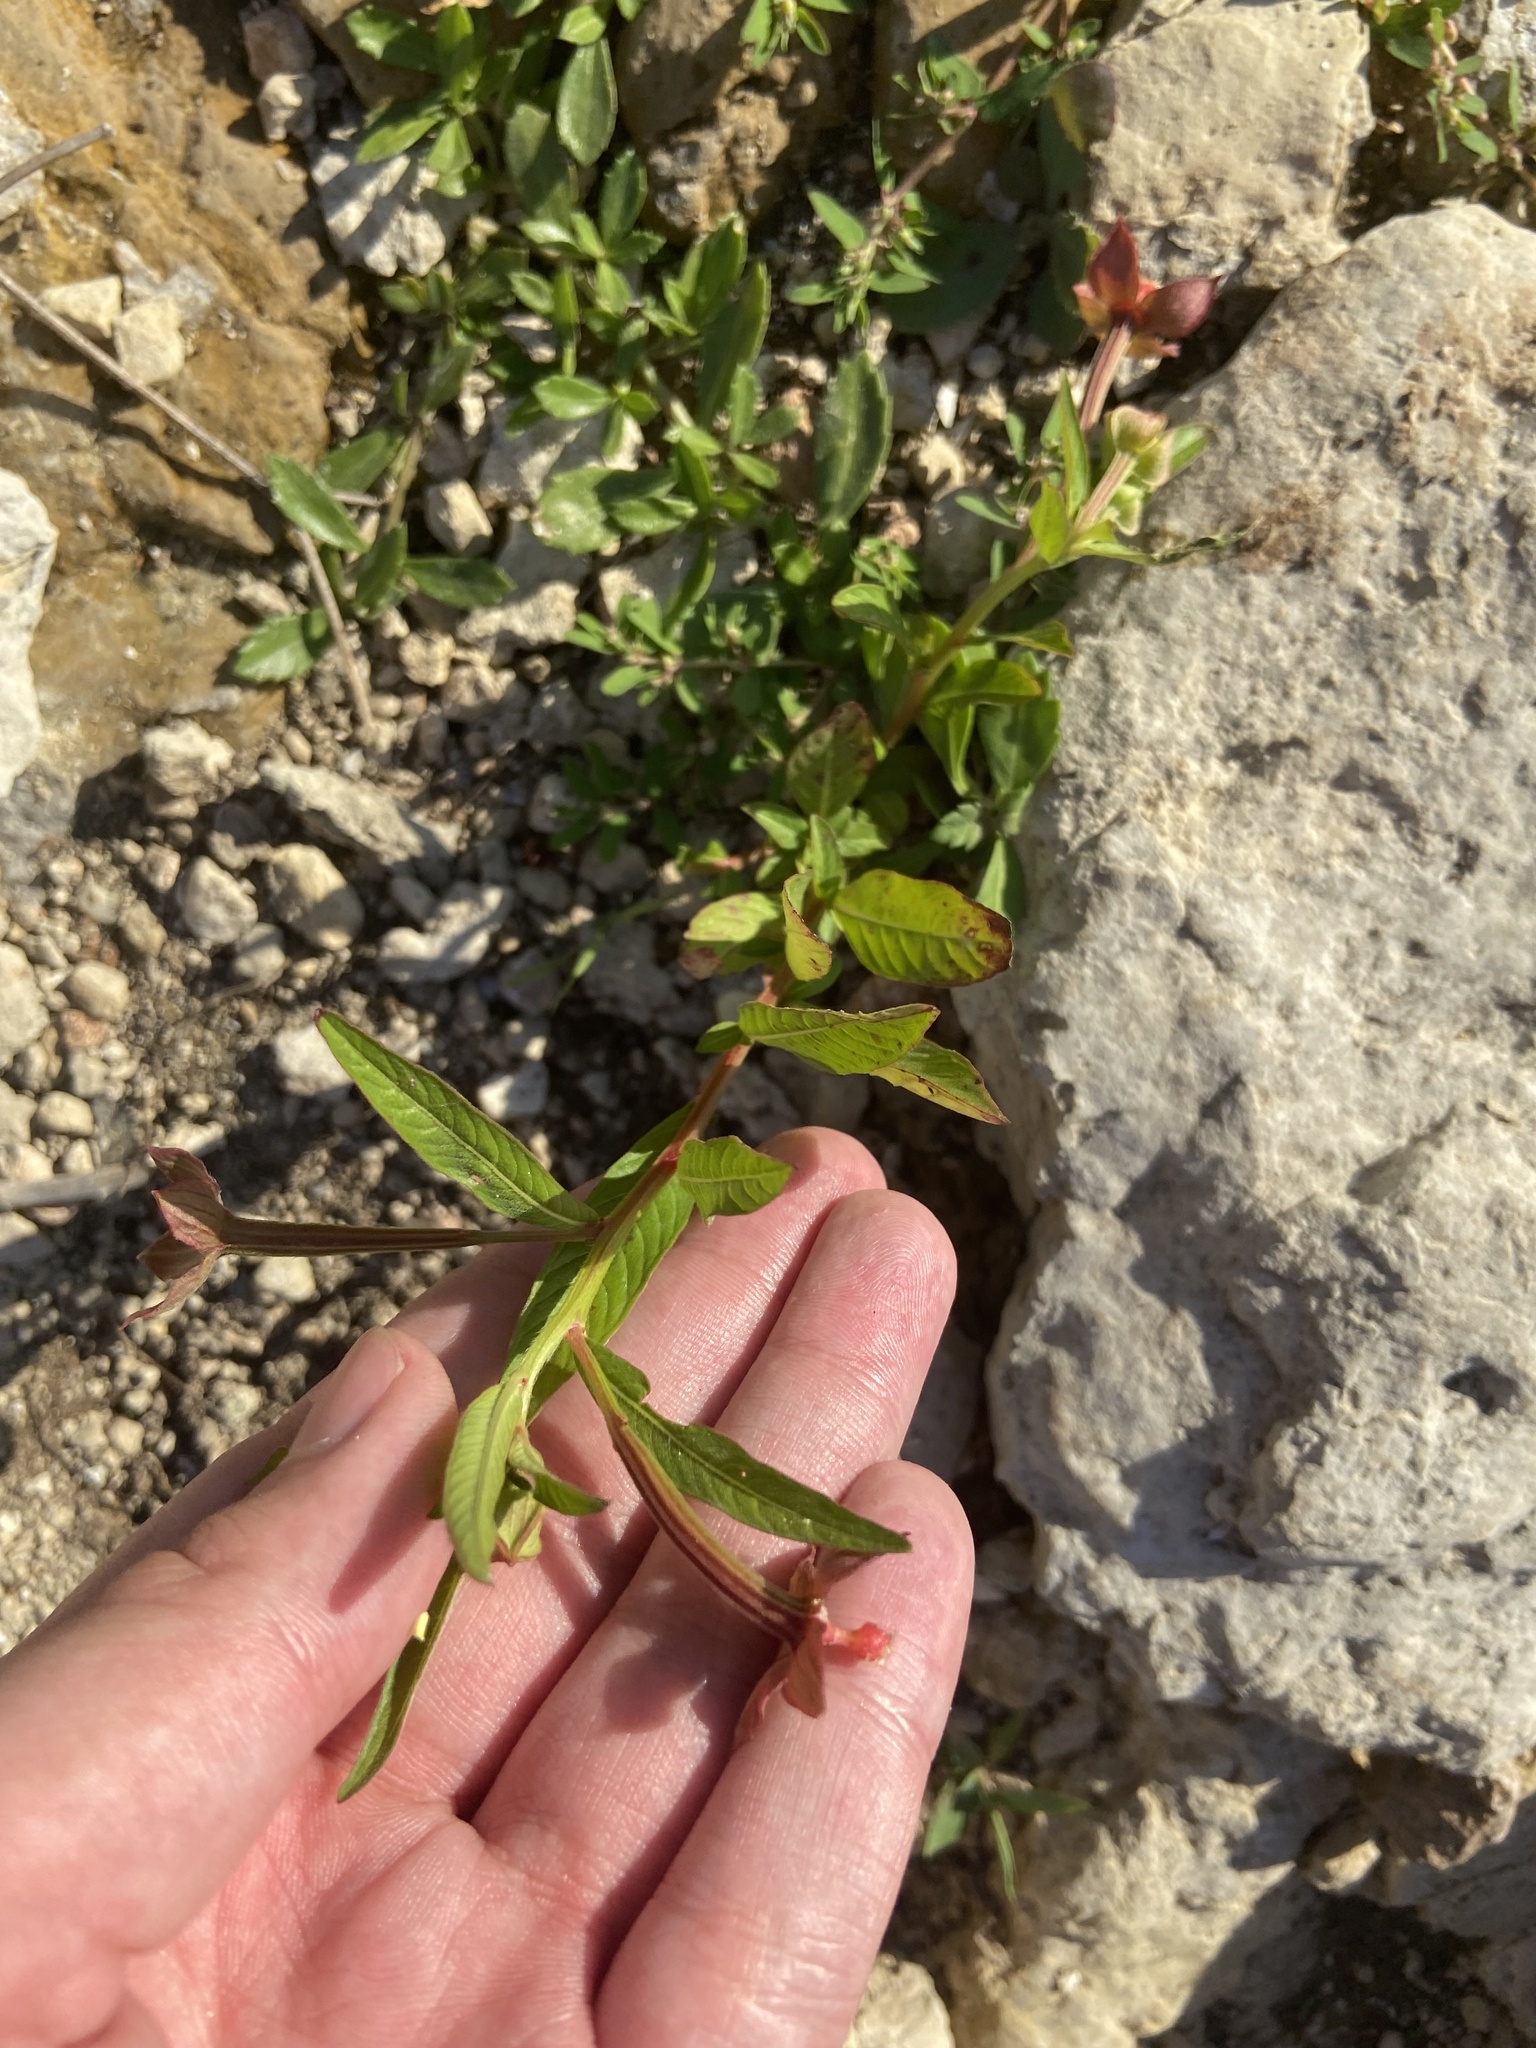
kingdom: Plantae
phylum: Tracheophyta
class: Magnoliopsida
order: Myrtales
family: Onagraceae
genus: Ludwigia
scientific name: Ludwigia octovalvis
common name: Water-primrose
